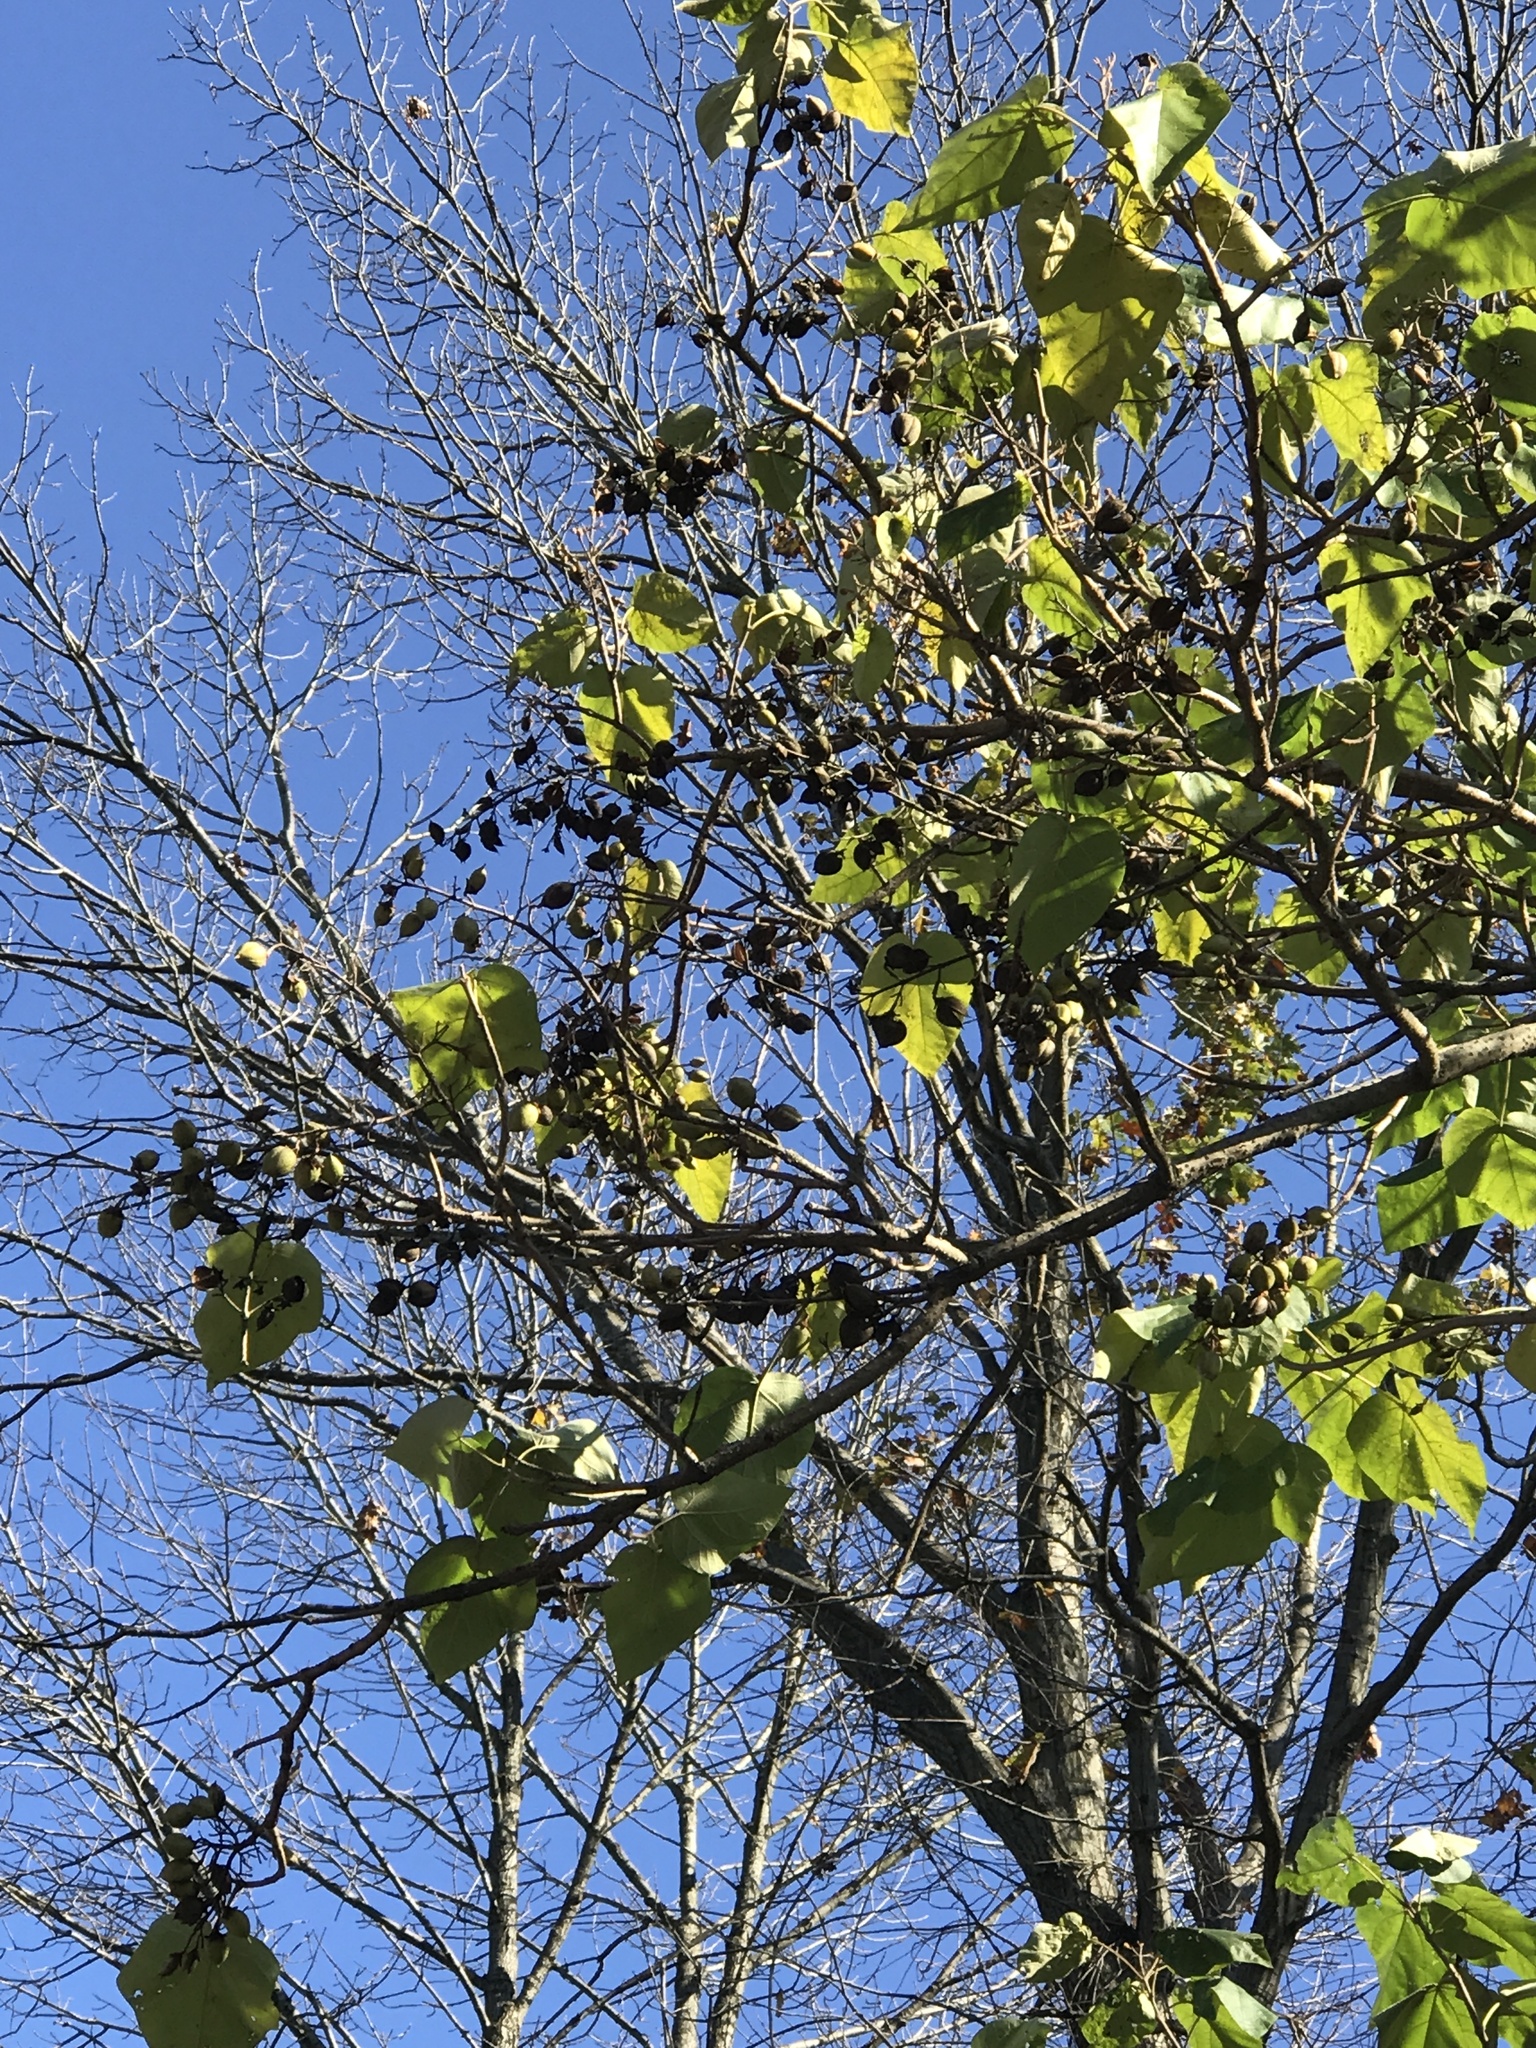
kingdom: Plantae
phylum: Tracheophyta
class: Magnoliopsida
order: Lamiales
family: Paulowniaceae
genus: Paulownia
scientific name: Paulownia tomentosa
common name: Foxglove-tree
